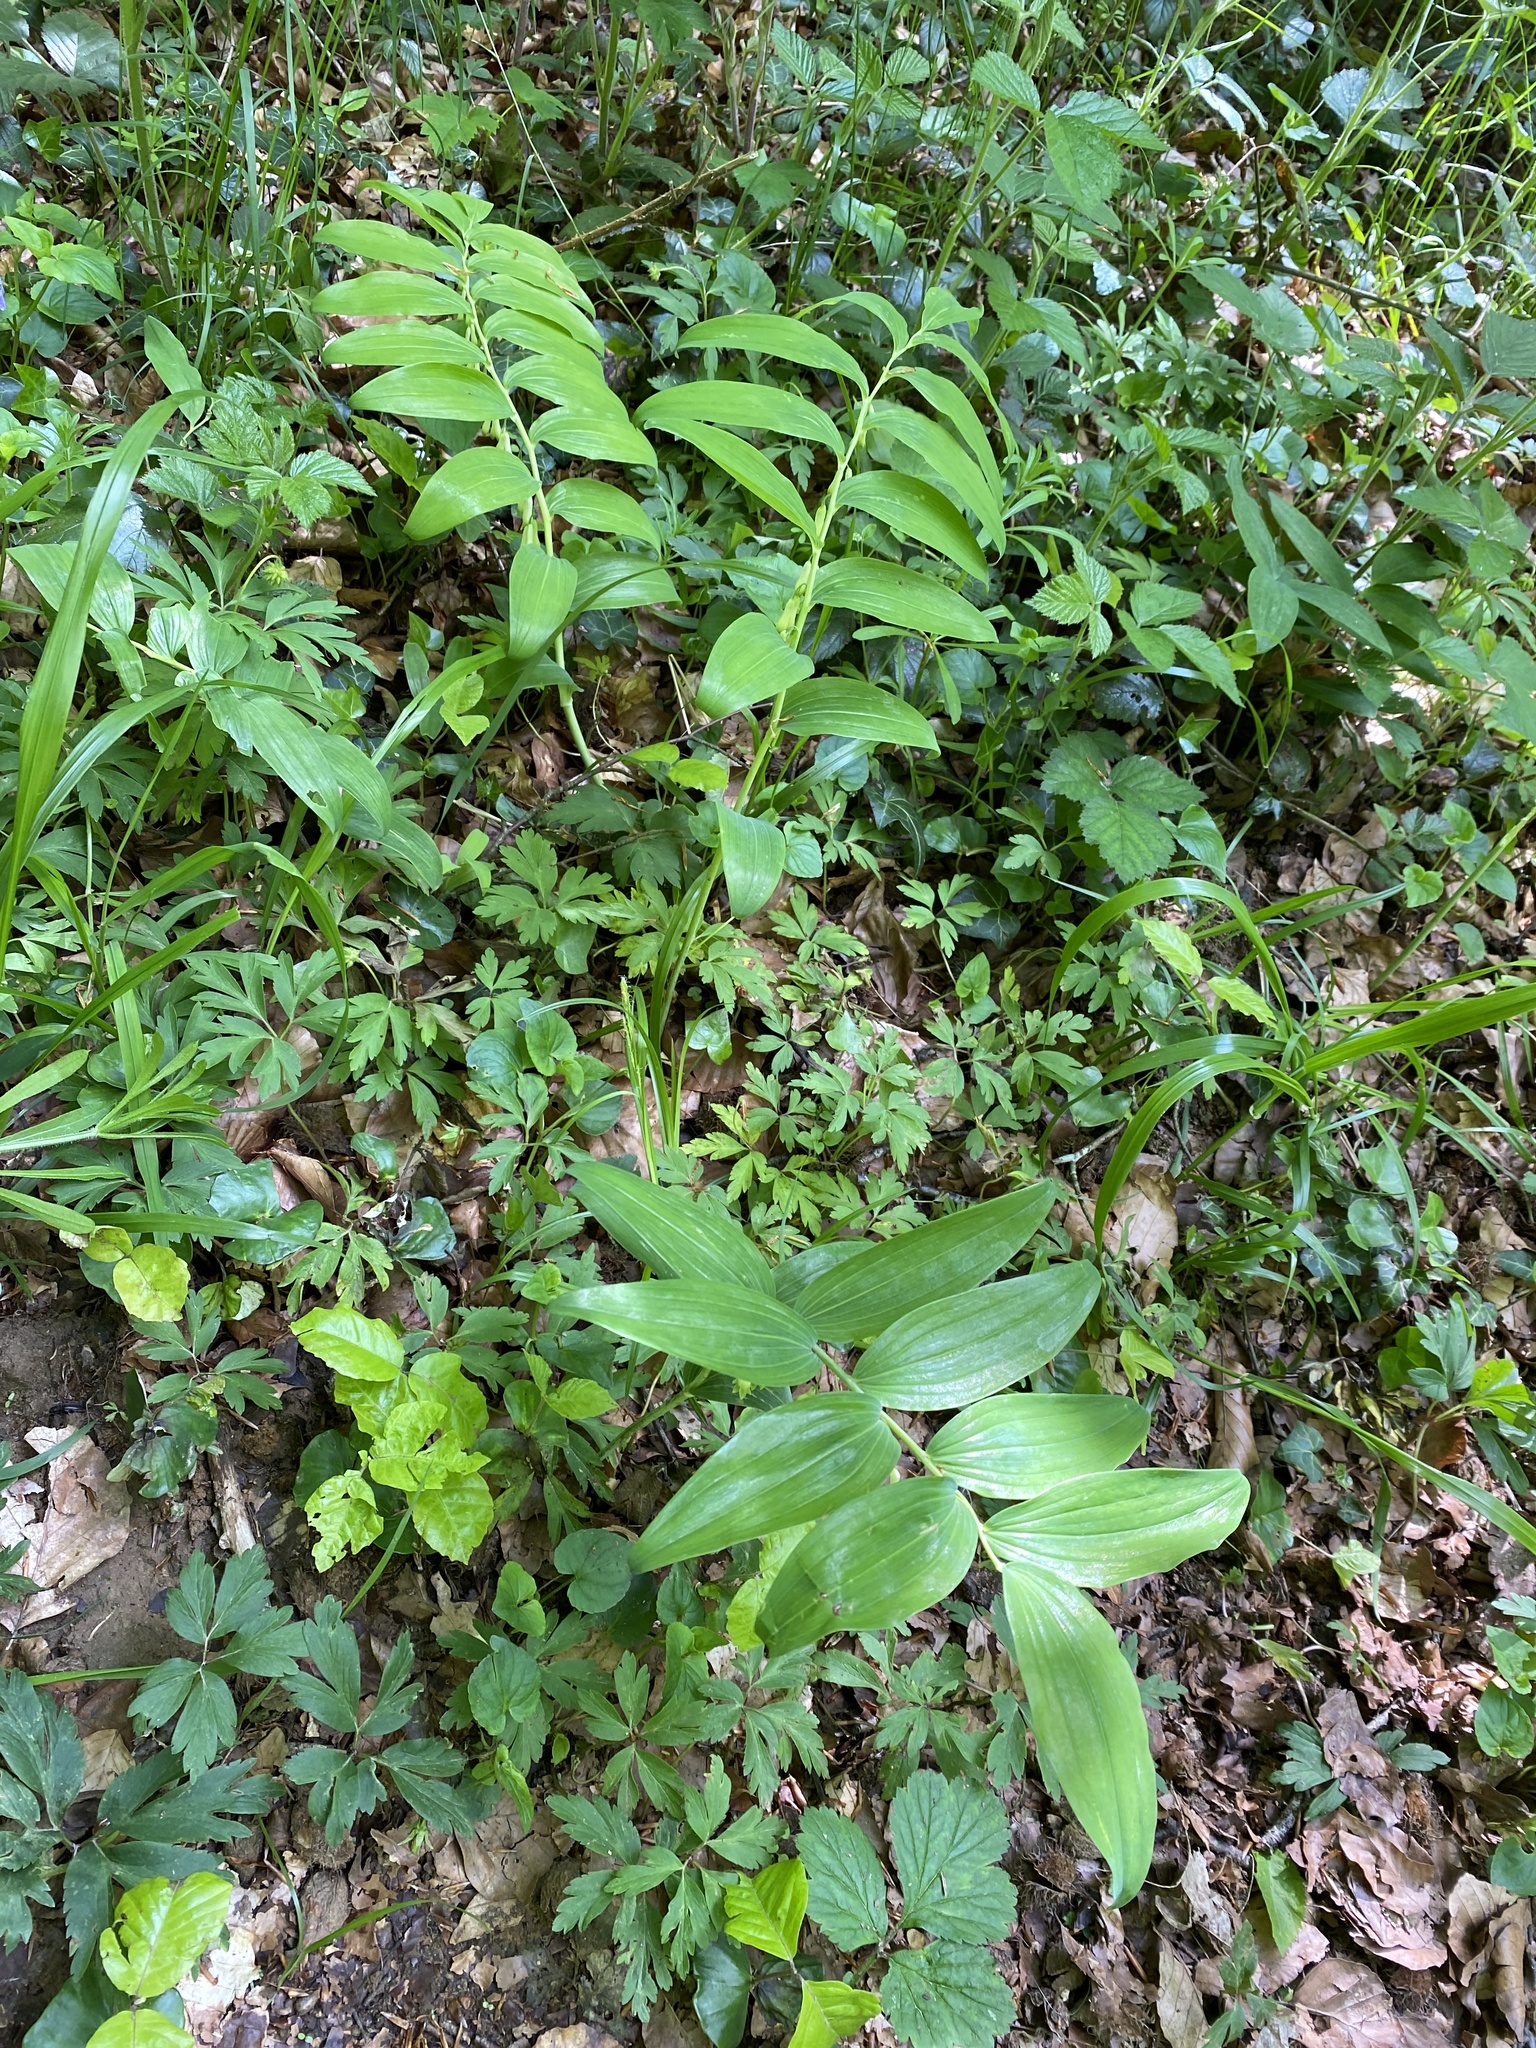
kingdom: Plantae
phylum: Tracheophyta
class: Liliopsida
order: Asparagales
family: Asparagaceae
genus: Polygonatum
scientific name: Polygonatum multiflorum
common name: Solomon's-seal
